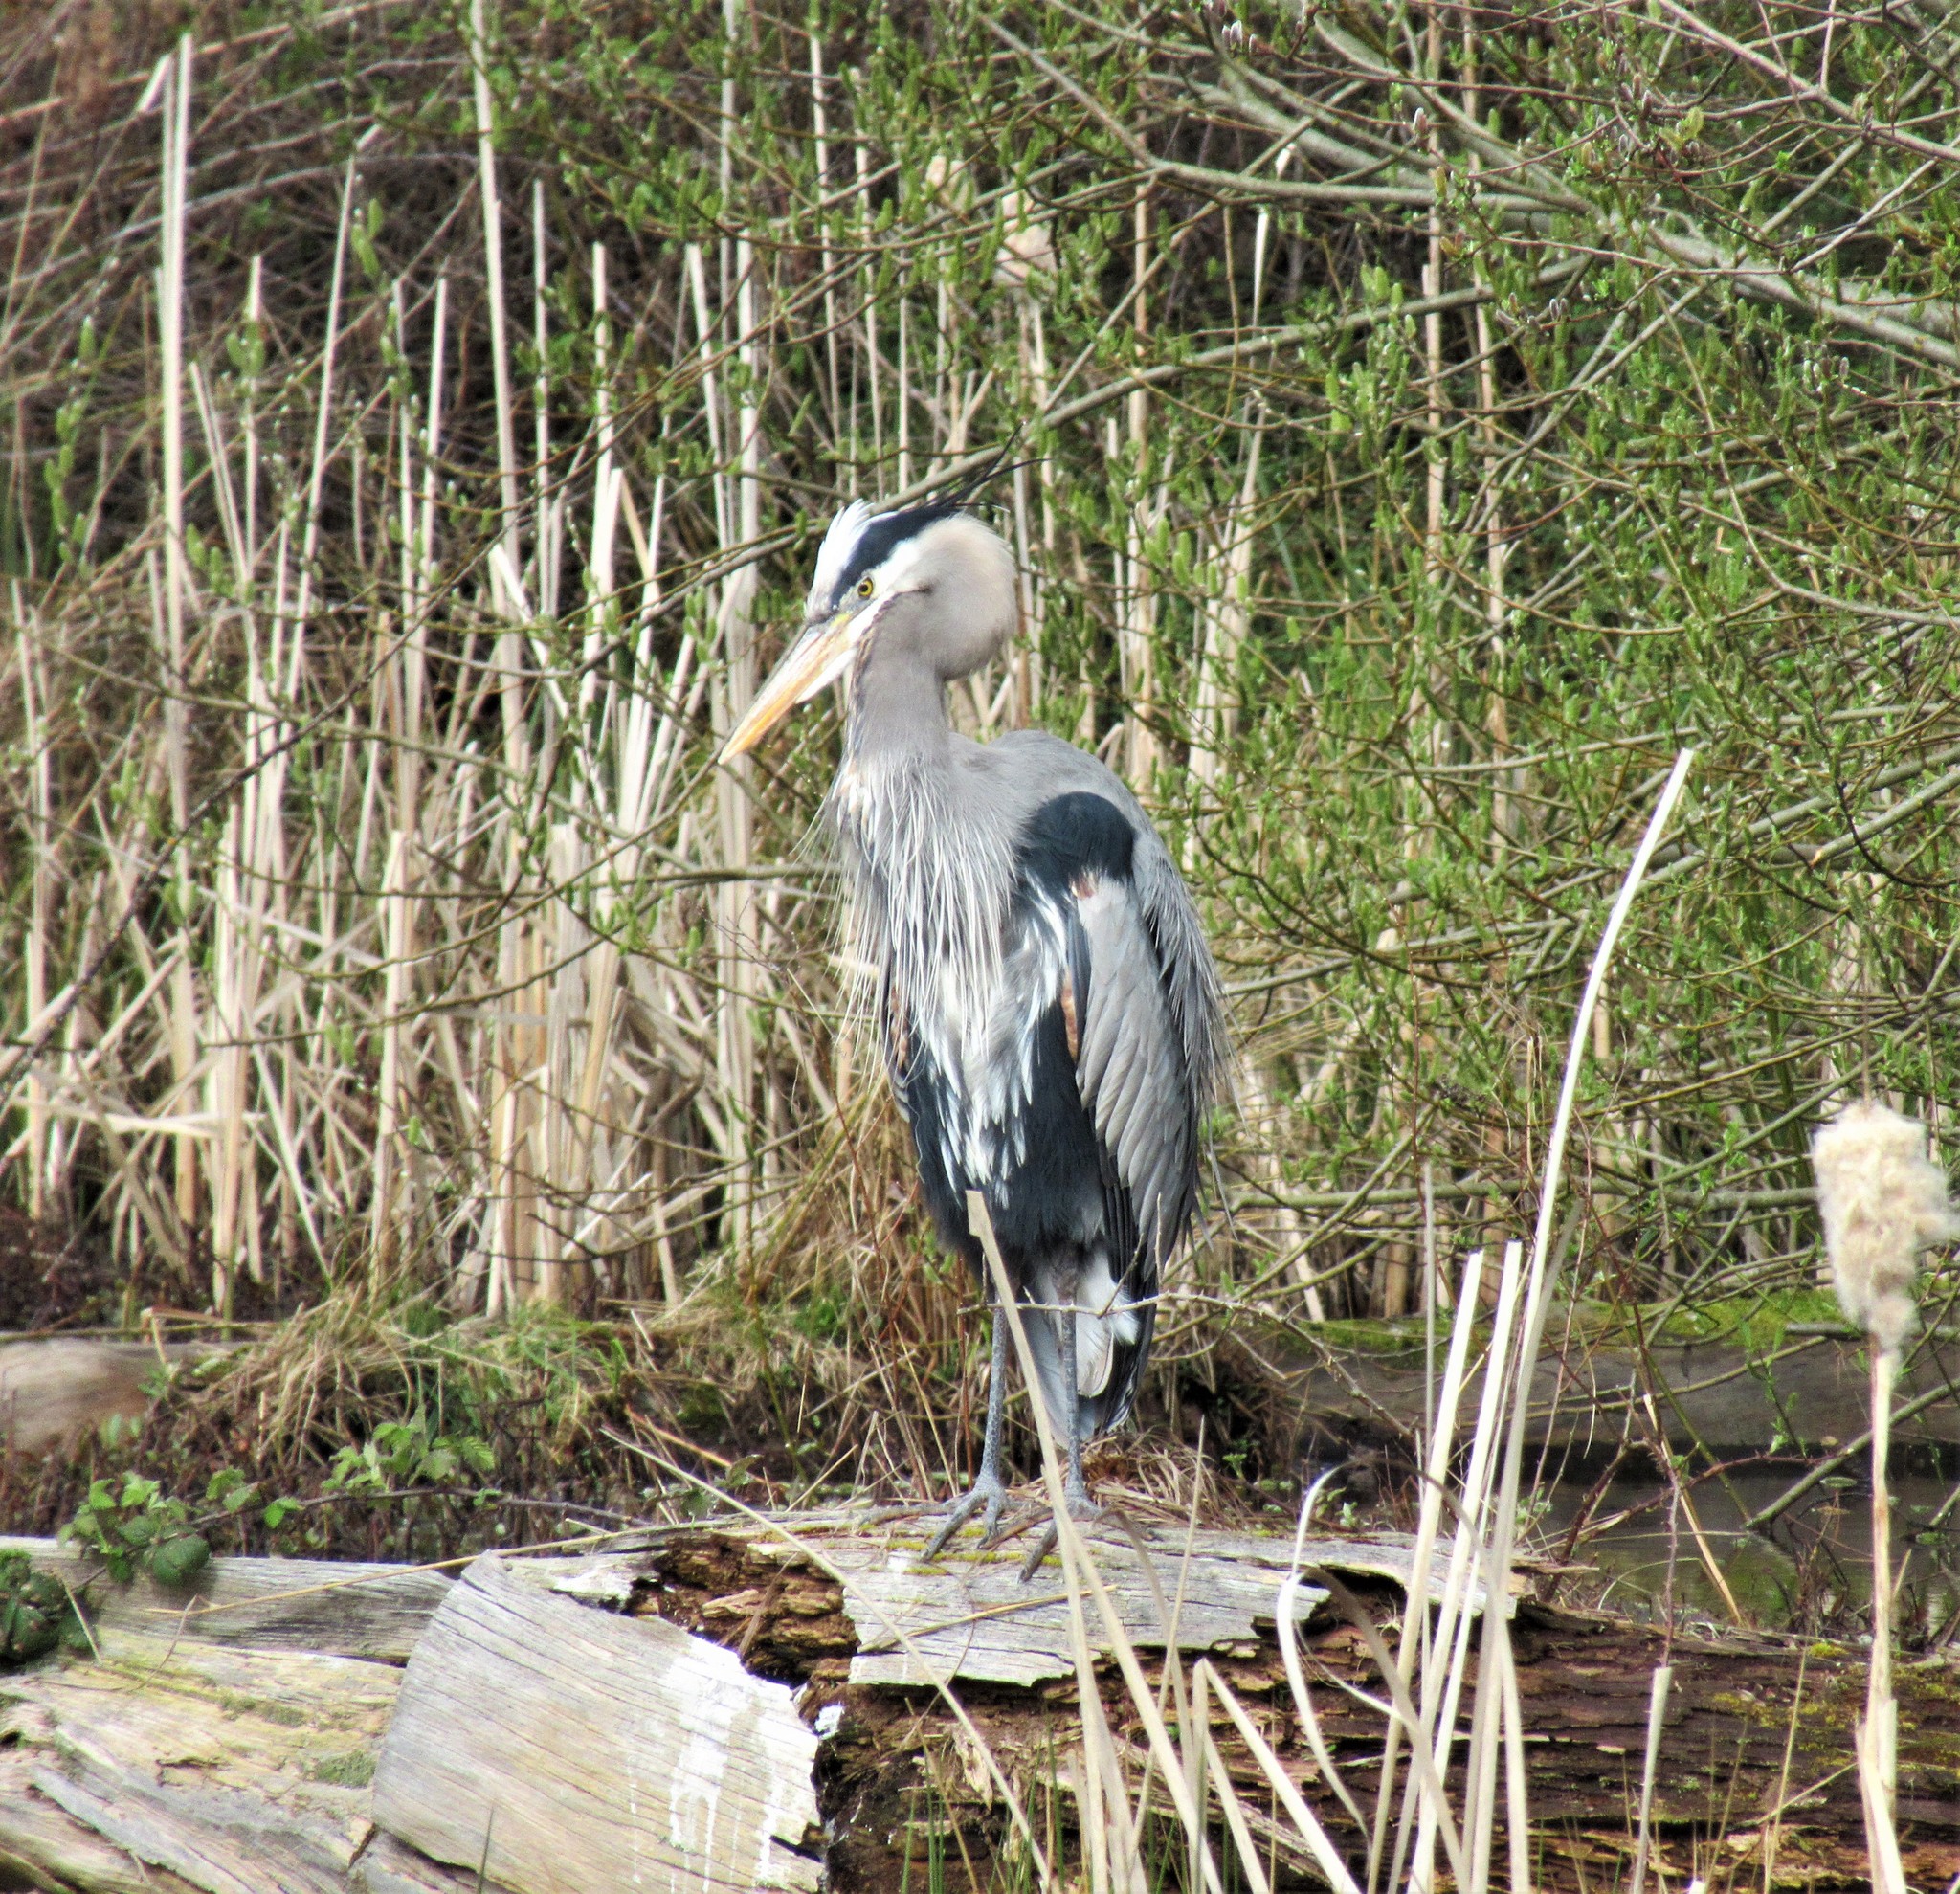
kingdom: Animalia
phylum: Chordata
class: Aves
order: Pelecaniformes
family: Ardeidae
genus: Ardea
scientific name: Ardea herodias
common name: Great blue heron
